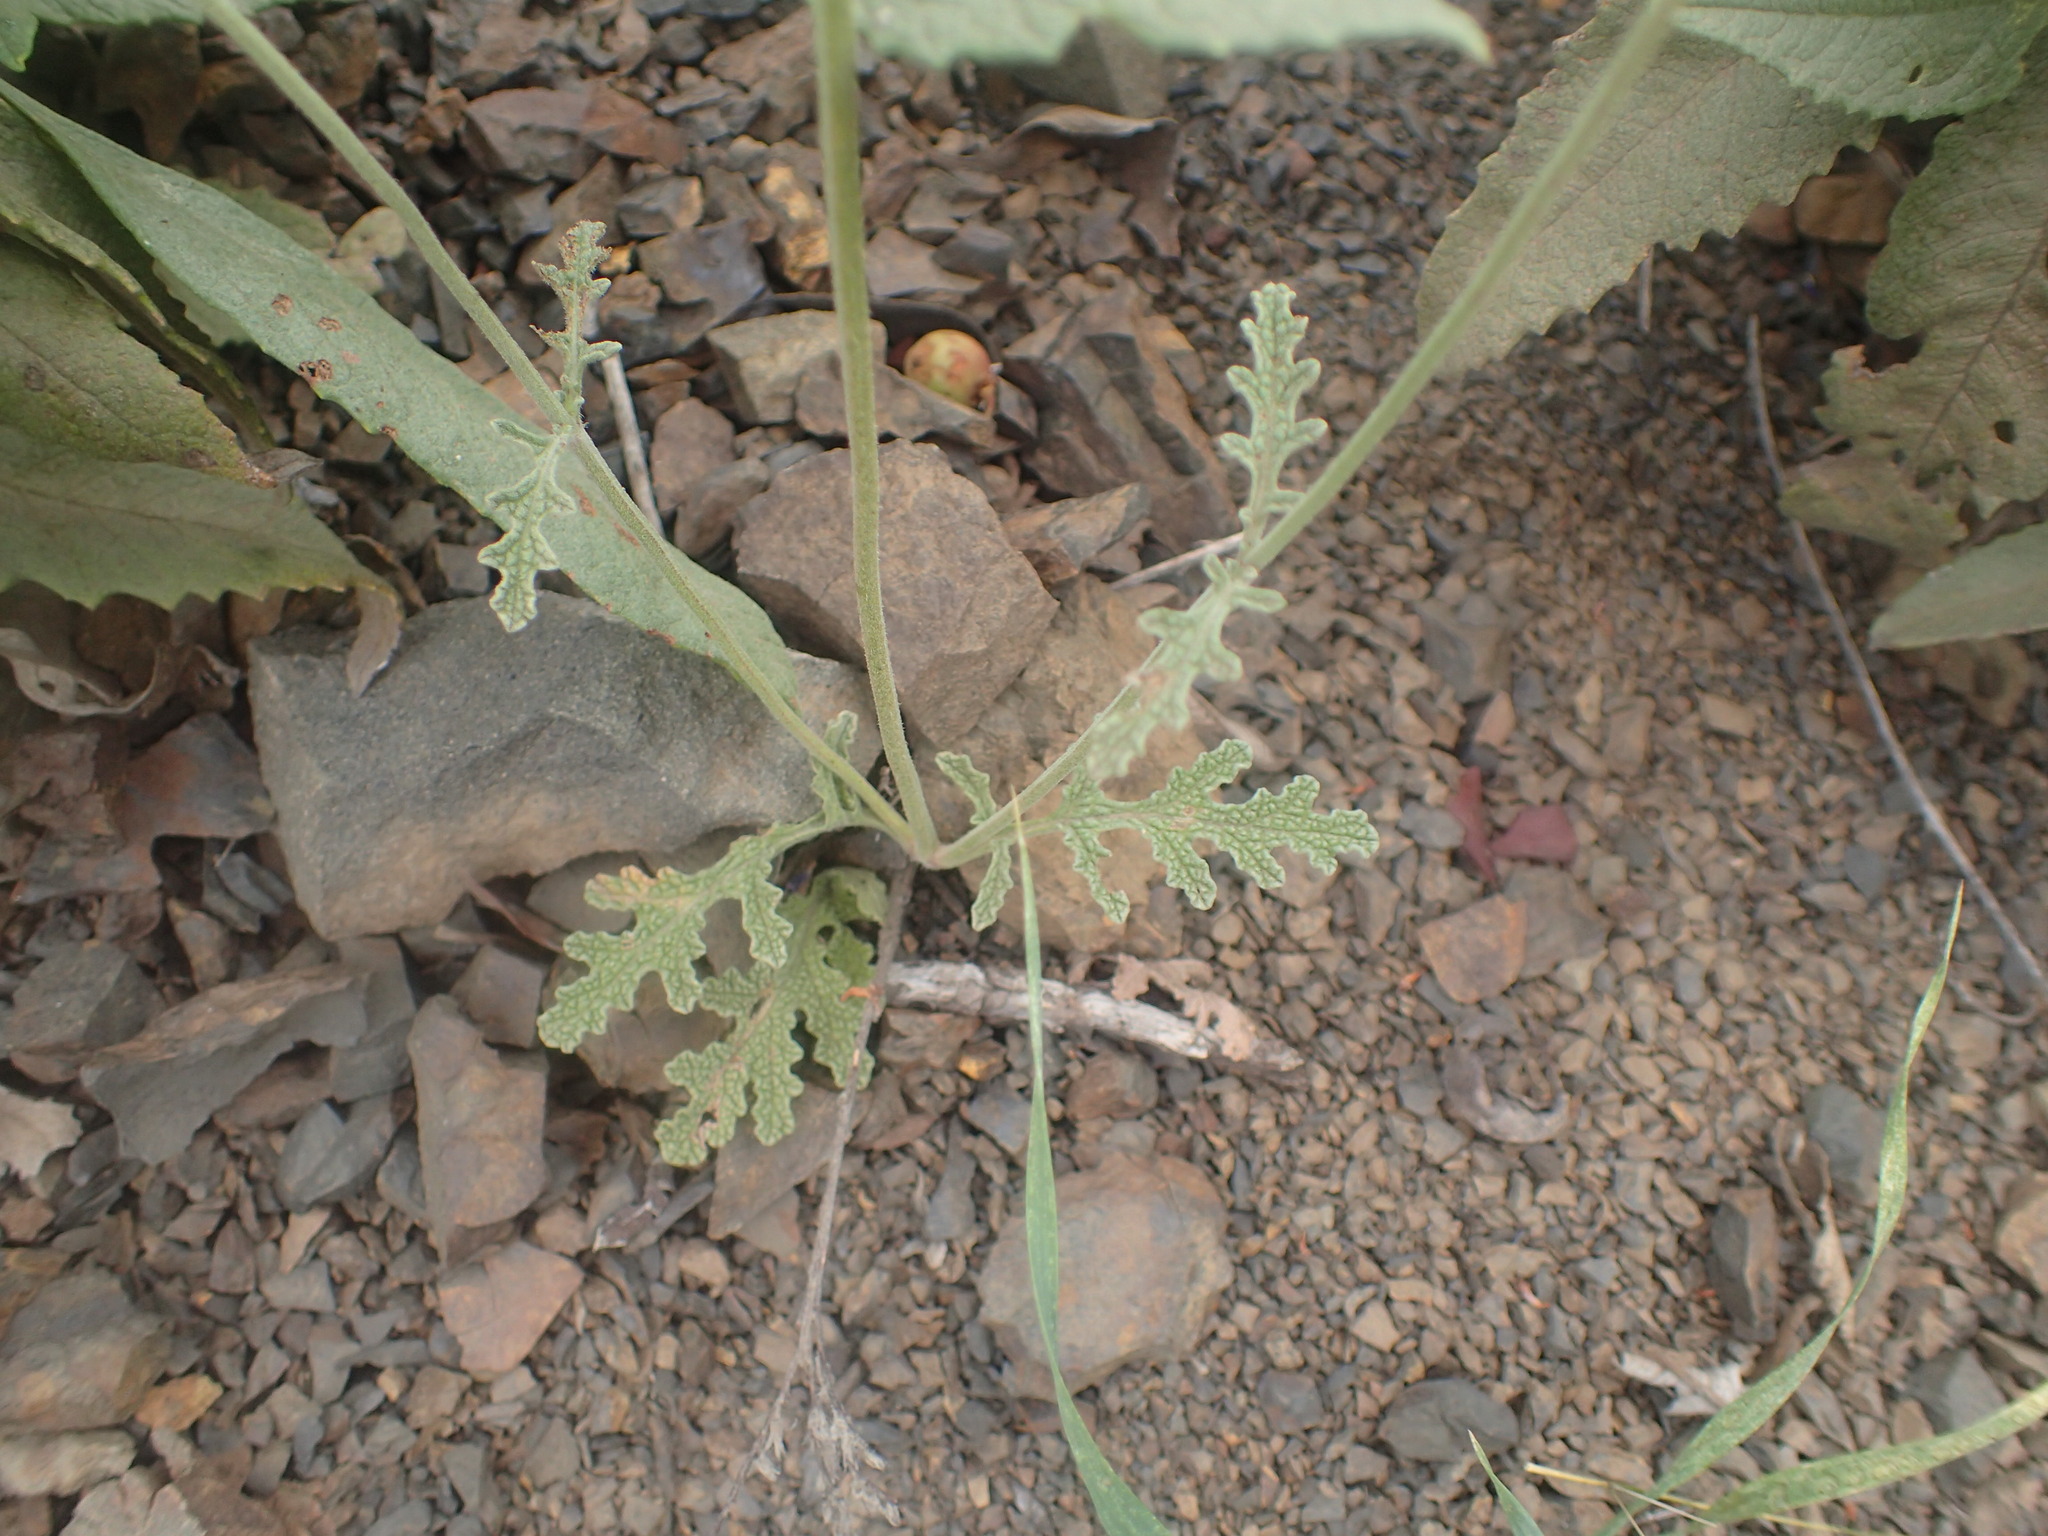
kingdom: Plantae
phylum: Tracheophyta
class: Magnoliopsida
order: Lamiales
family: Lamiaceae
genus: Salvia
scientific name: Salvia columbariae
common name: Chia
